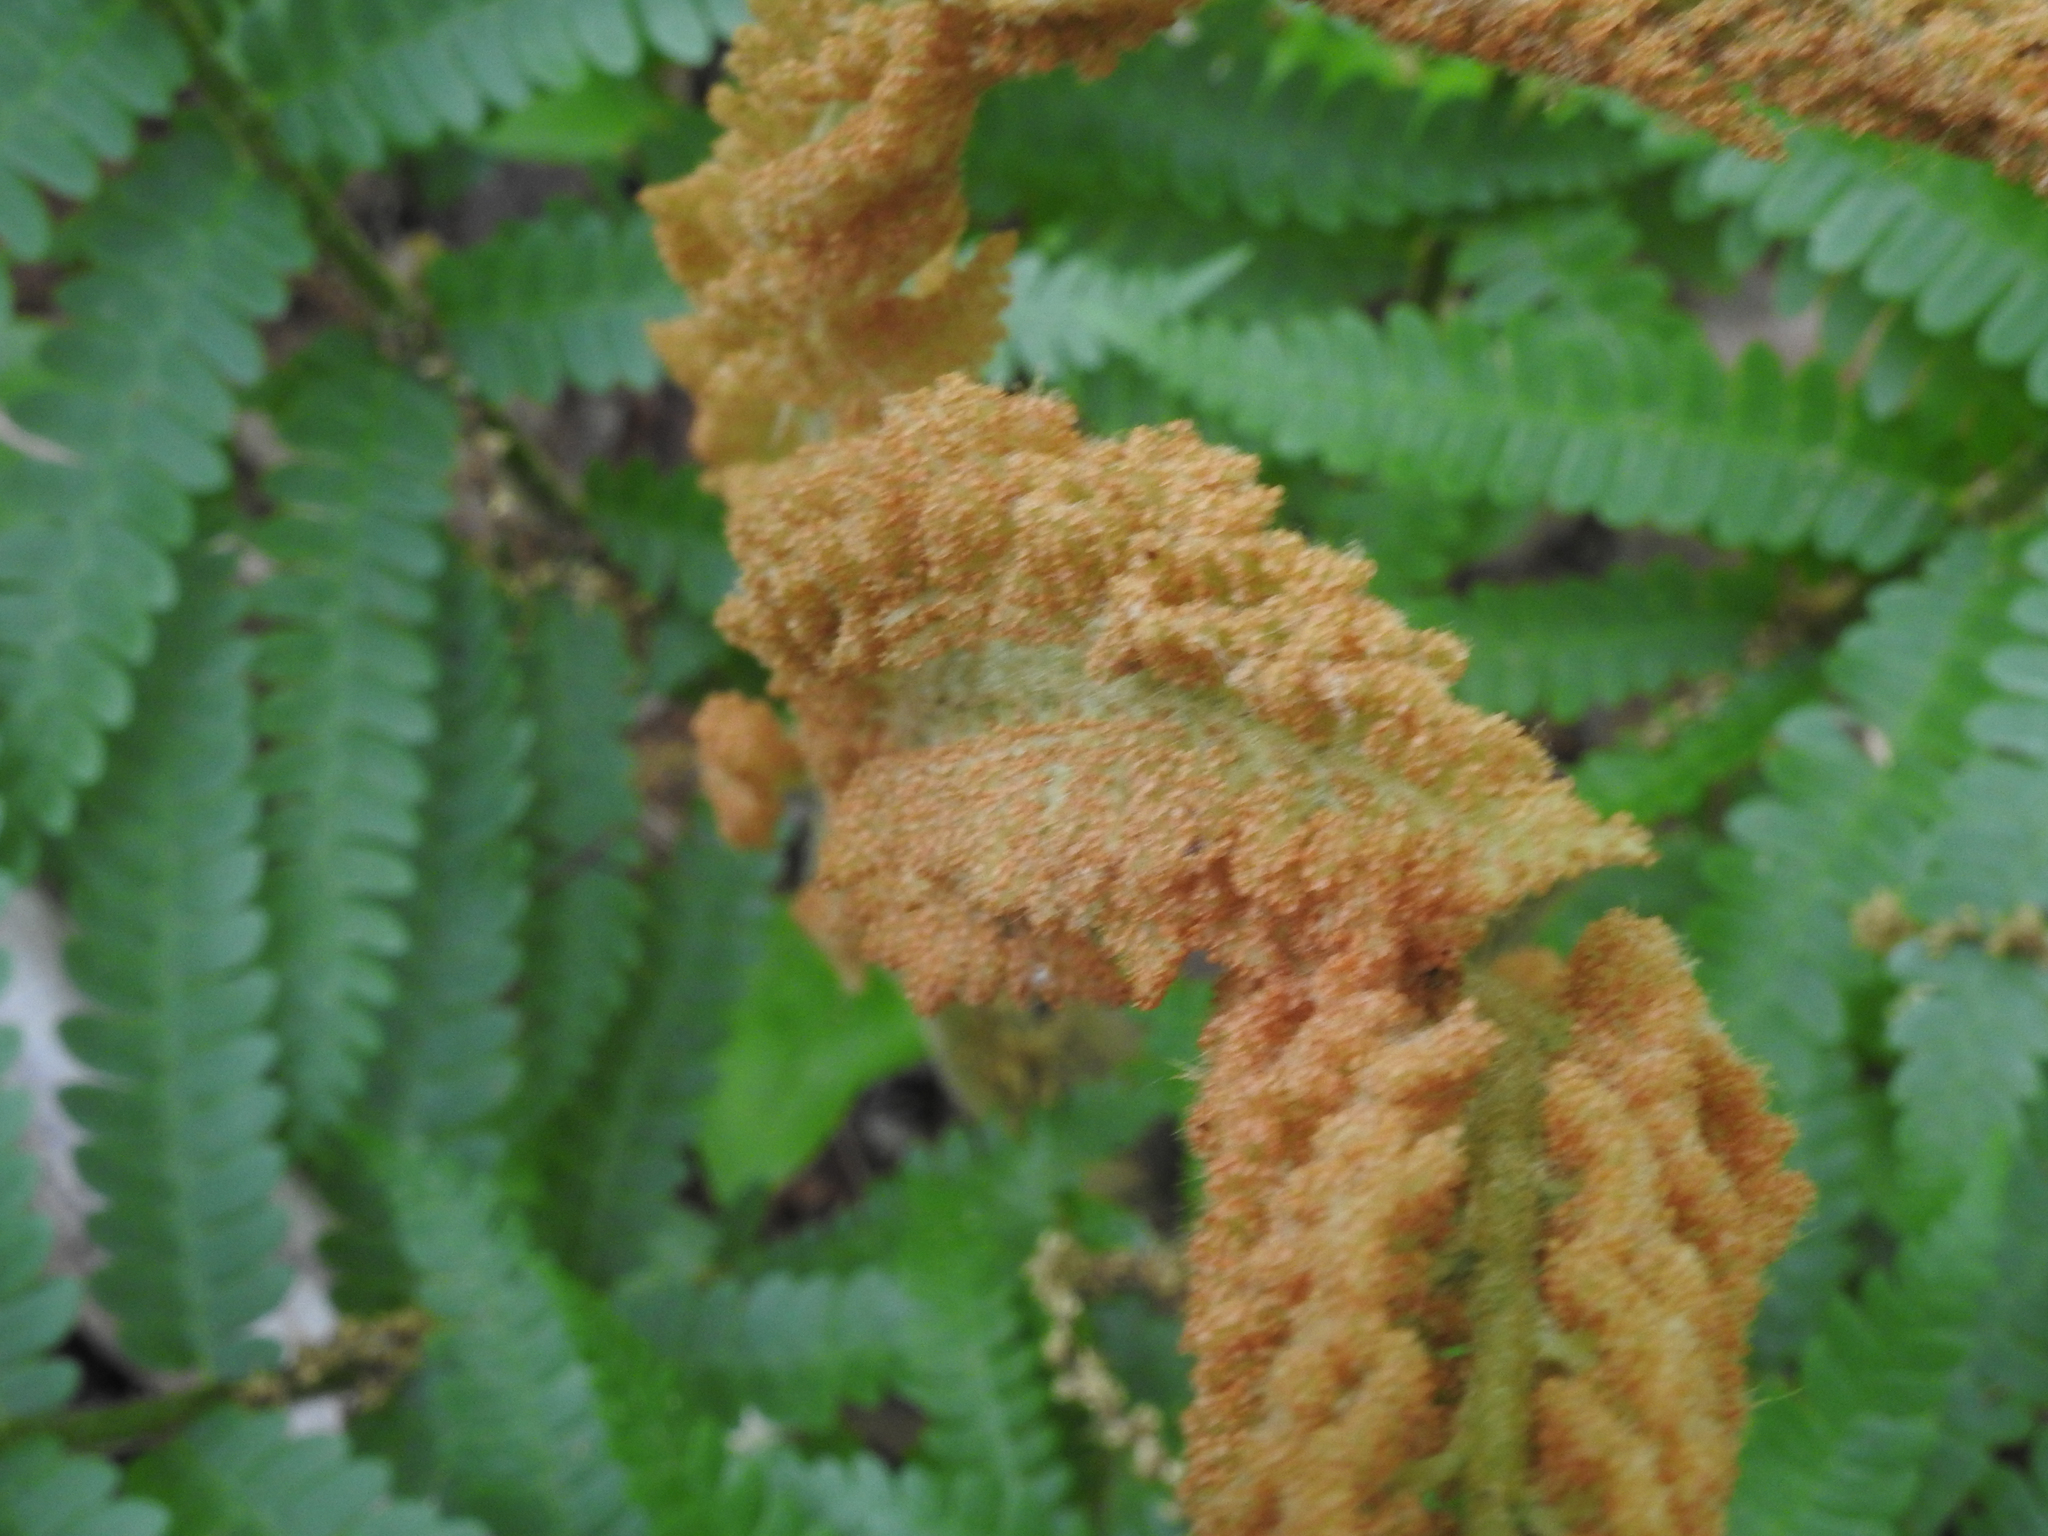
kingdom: Plantae
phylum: Tracheophyta
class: Polypodiopsida
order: Osmundales
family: Osmundaceae
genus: Osmundastrum
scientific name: Osmundastrum cinnamomeum
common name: Cinnamon fern
